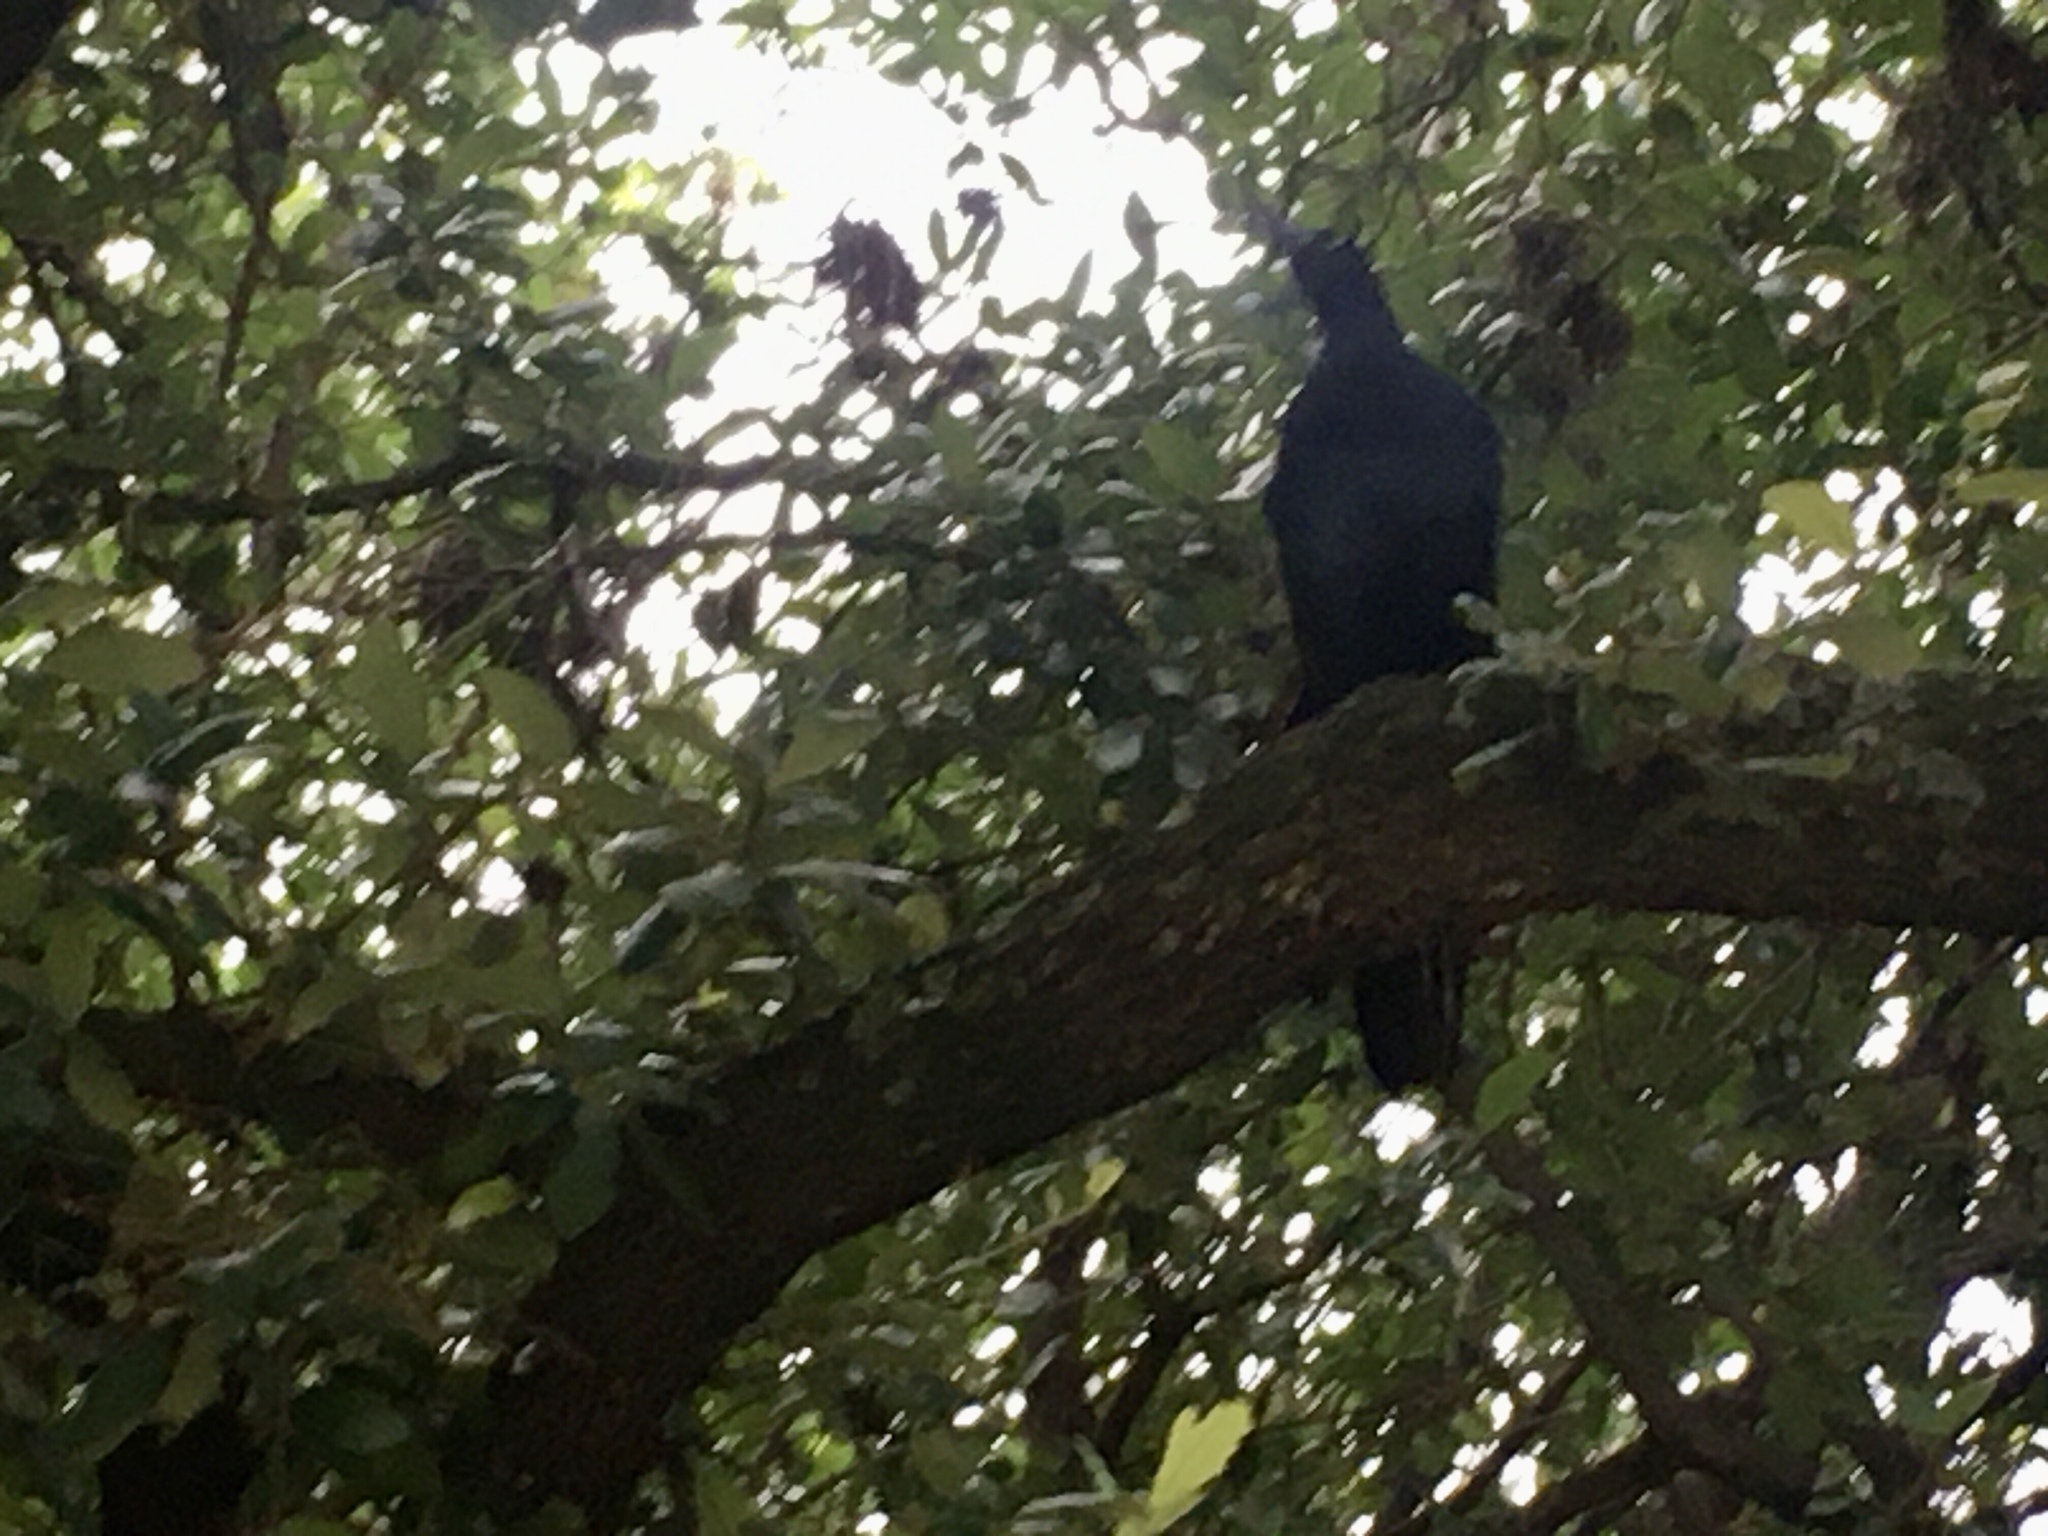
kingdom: Animalia
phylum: Chordata
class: Aves
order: Passeriformes
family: Icteridae
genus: Quiscalus
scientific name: Quiscalus mexicanus
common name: Great-tailed grackle
